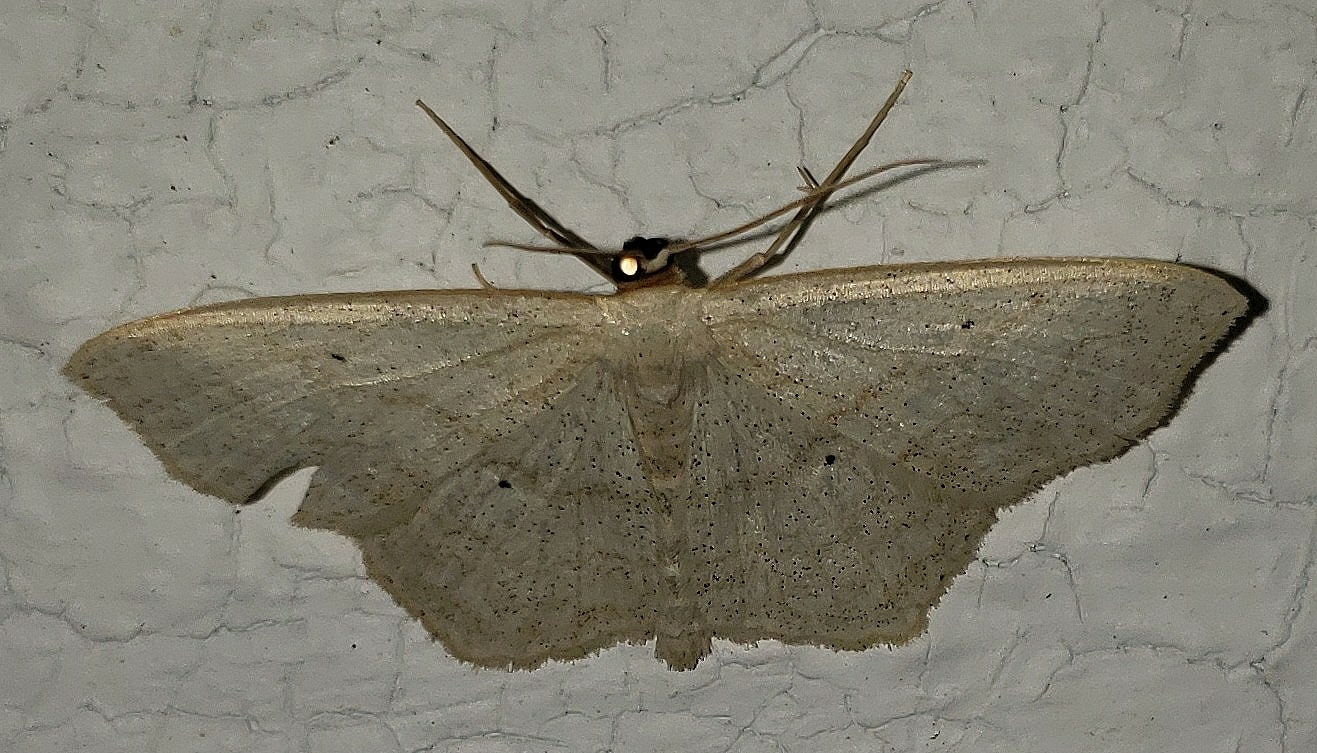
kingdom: Animalia
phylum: Arthropoda
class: Insecta
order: Lepidoptera
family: Geometridae
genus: Scopula
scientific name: Scopula limboundata
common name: Large lace border
